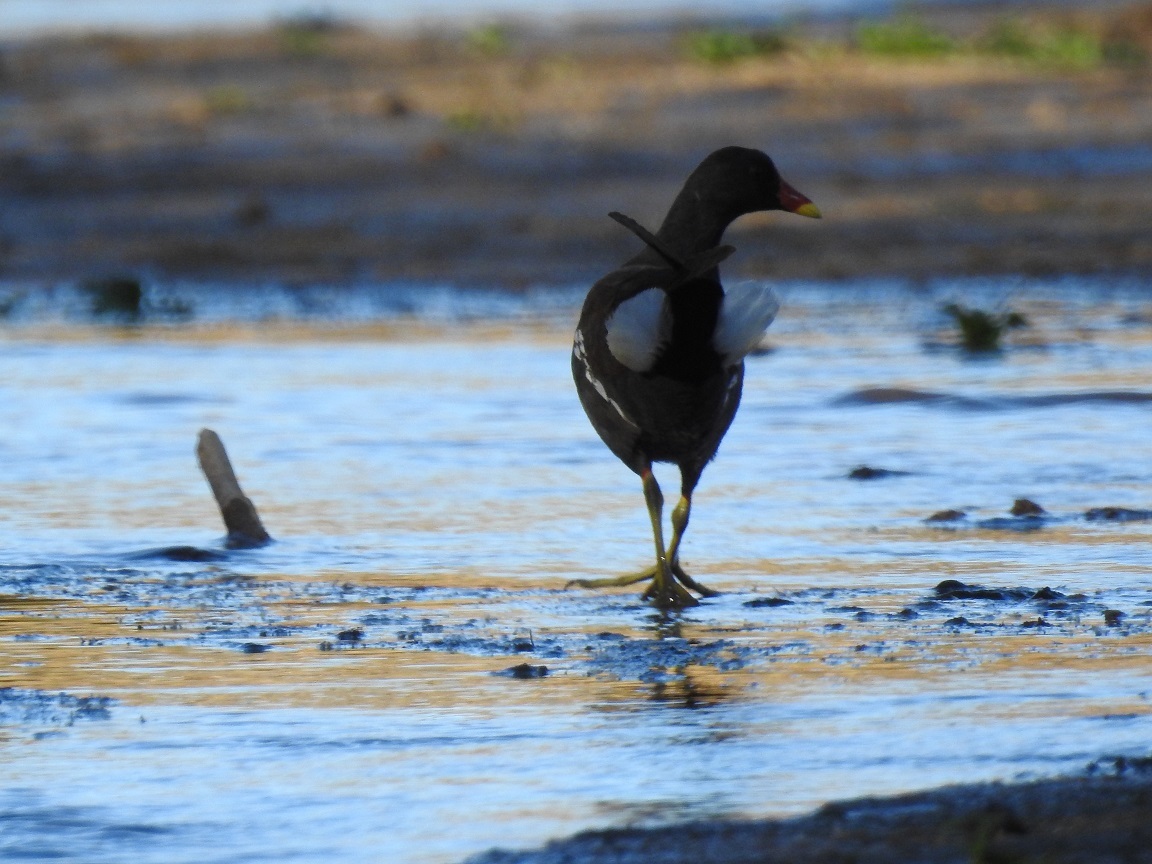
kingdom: Animalia
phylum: Chordata
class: Aves
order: Gruiformes
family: Rallidae
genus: Gallinula
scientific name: Gallinula chloropus
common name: Common moorhen
